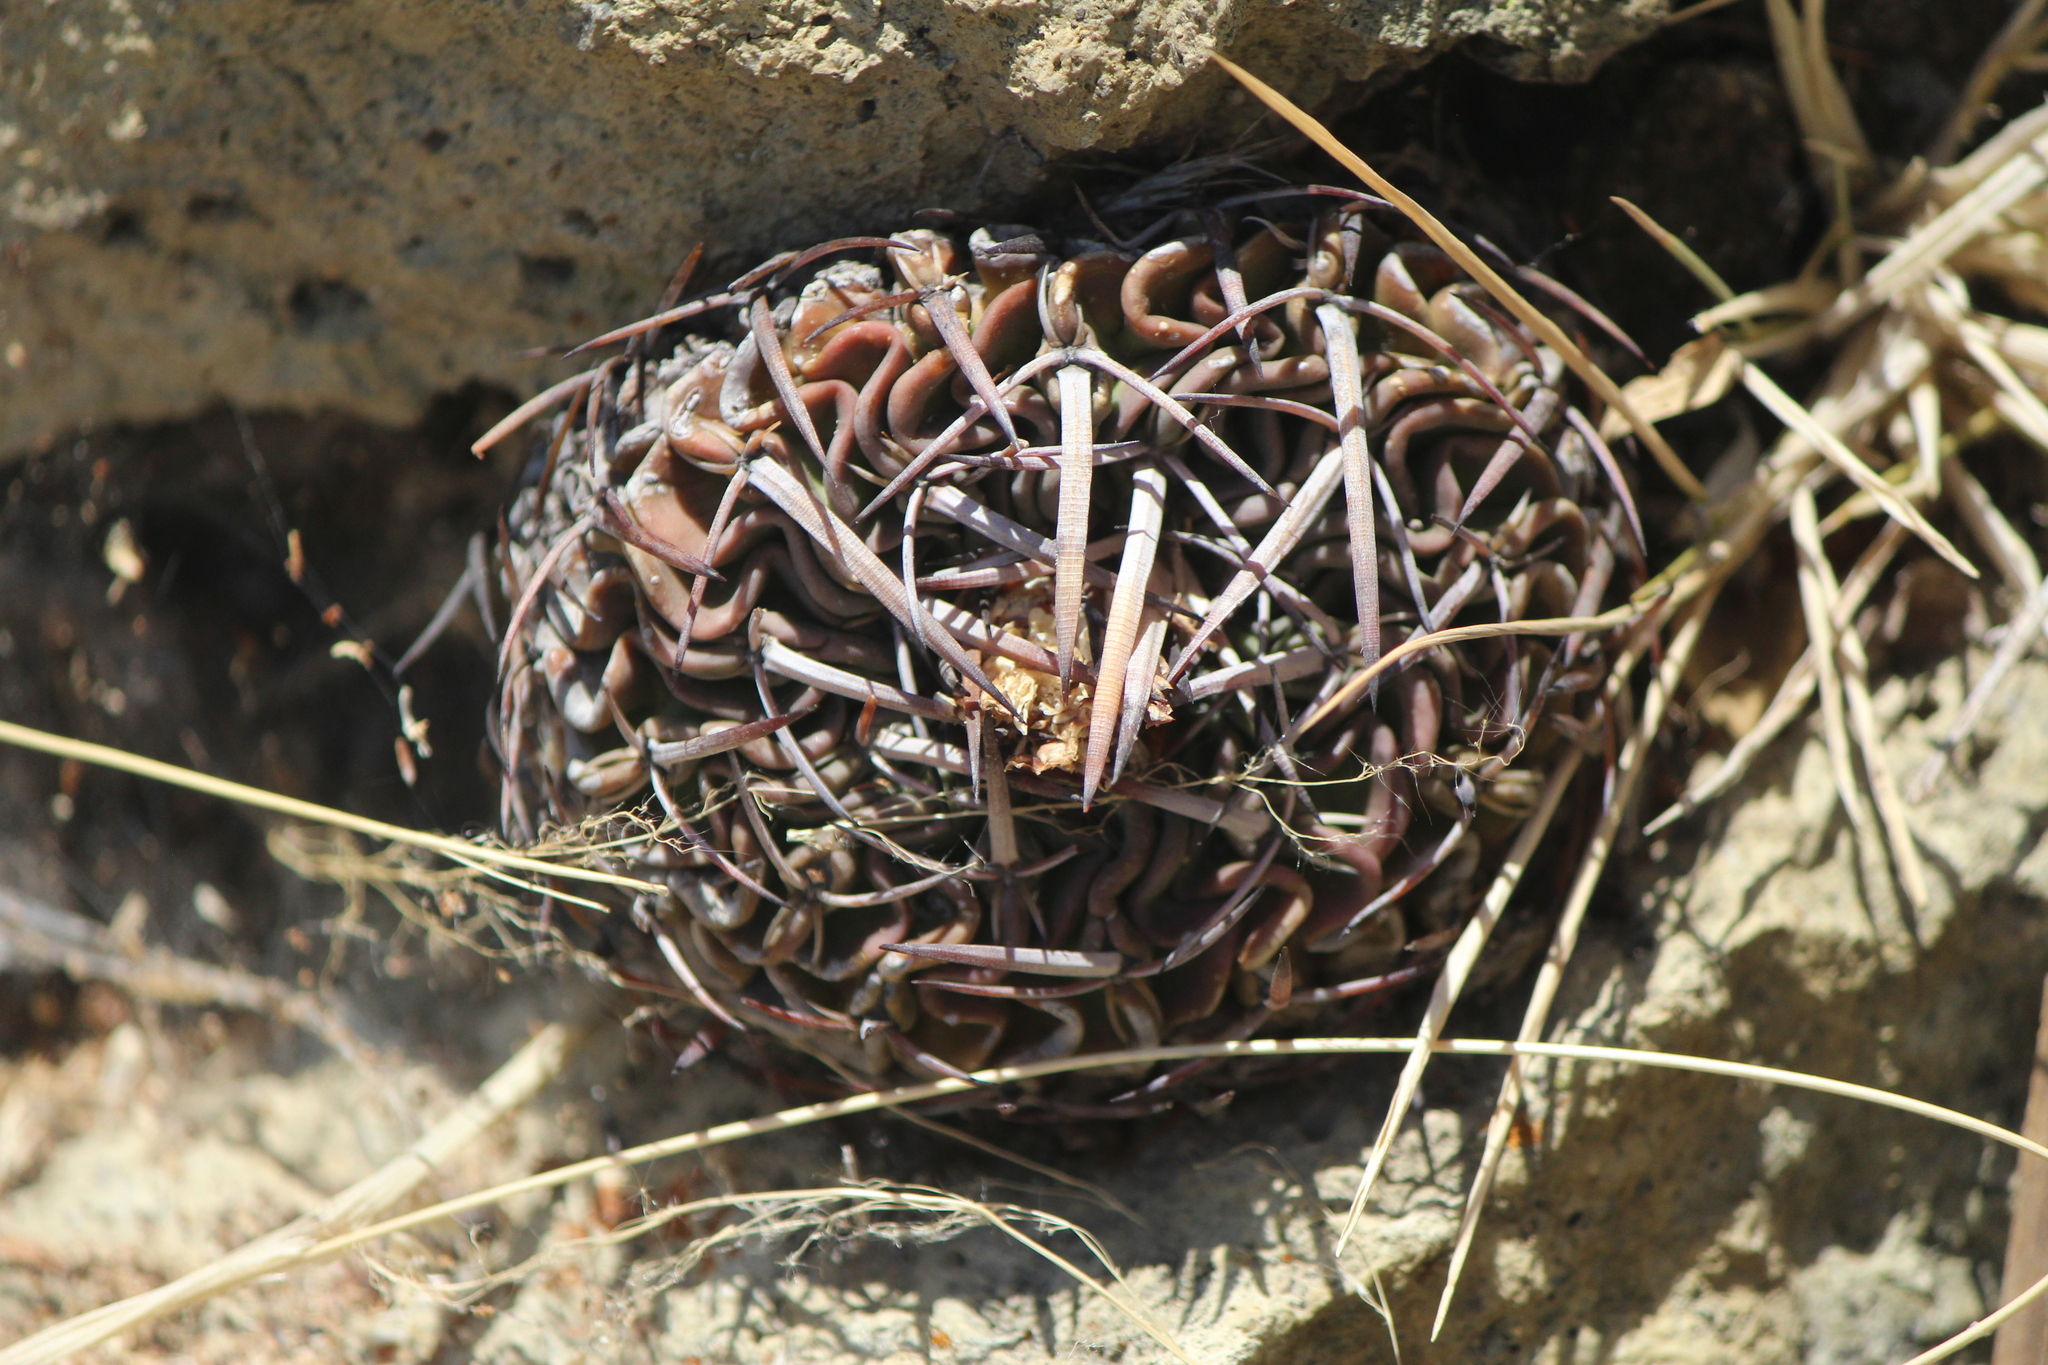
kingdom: Plantae
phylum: Tracheophyta
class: Magnoliopsida
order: Caryophyllales
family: Cactaceae
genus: Stenocactus
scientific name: Stenocactus obvallatus
